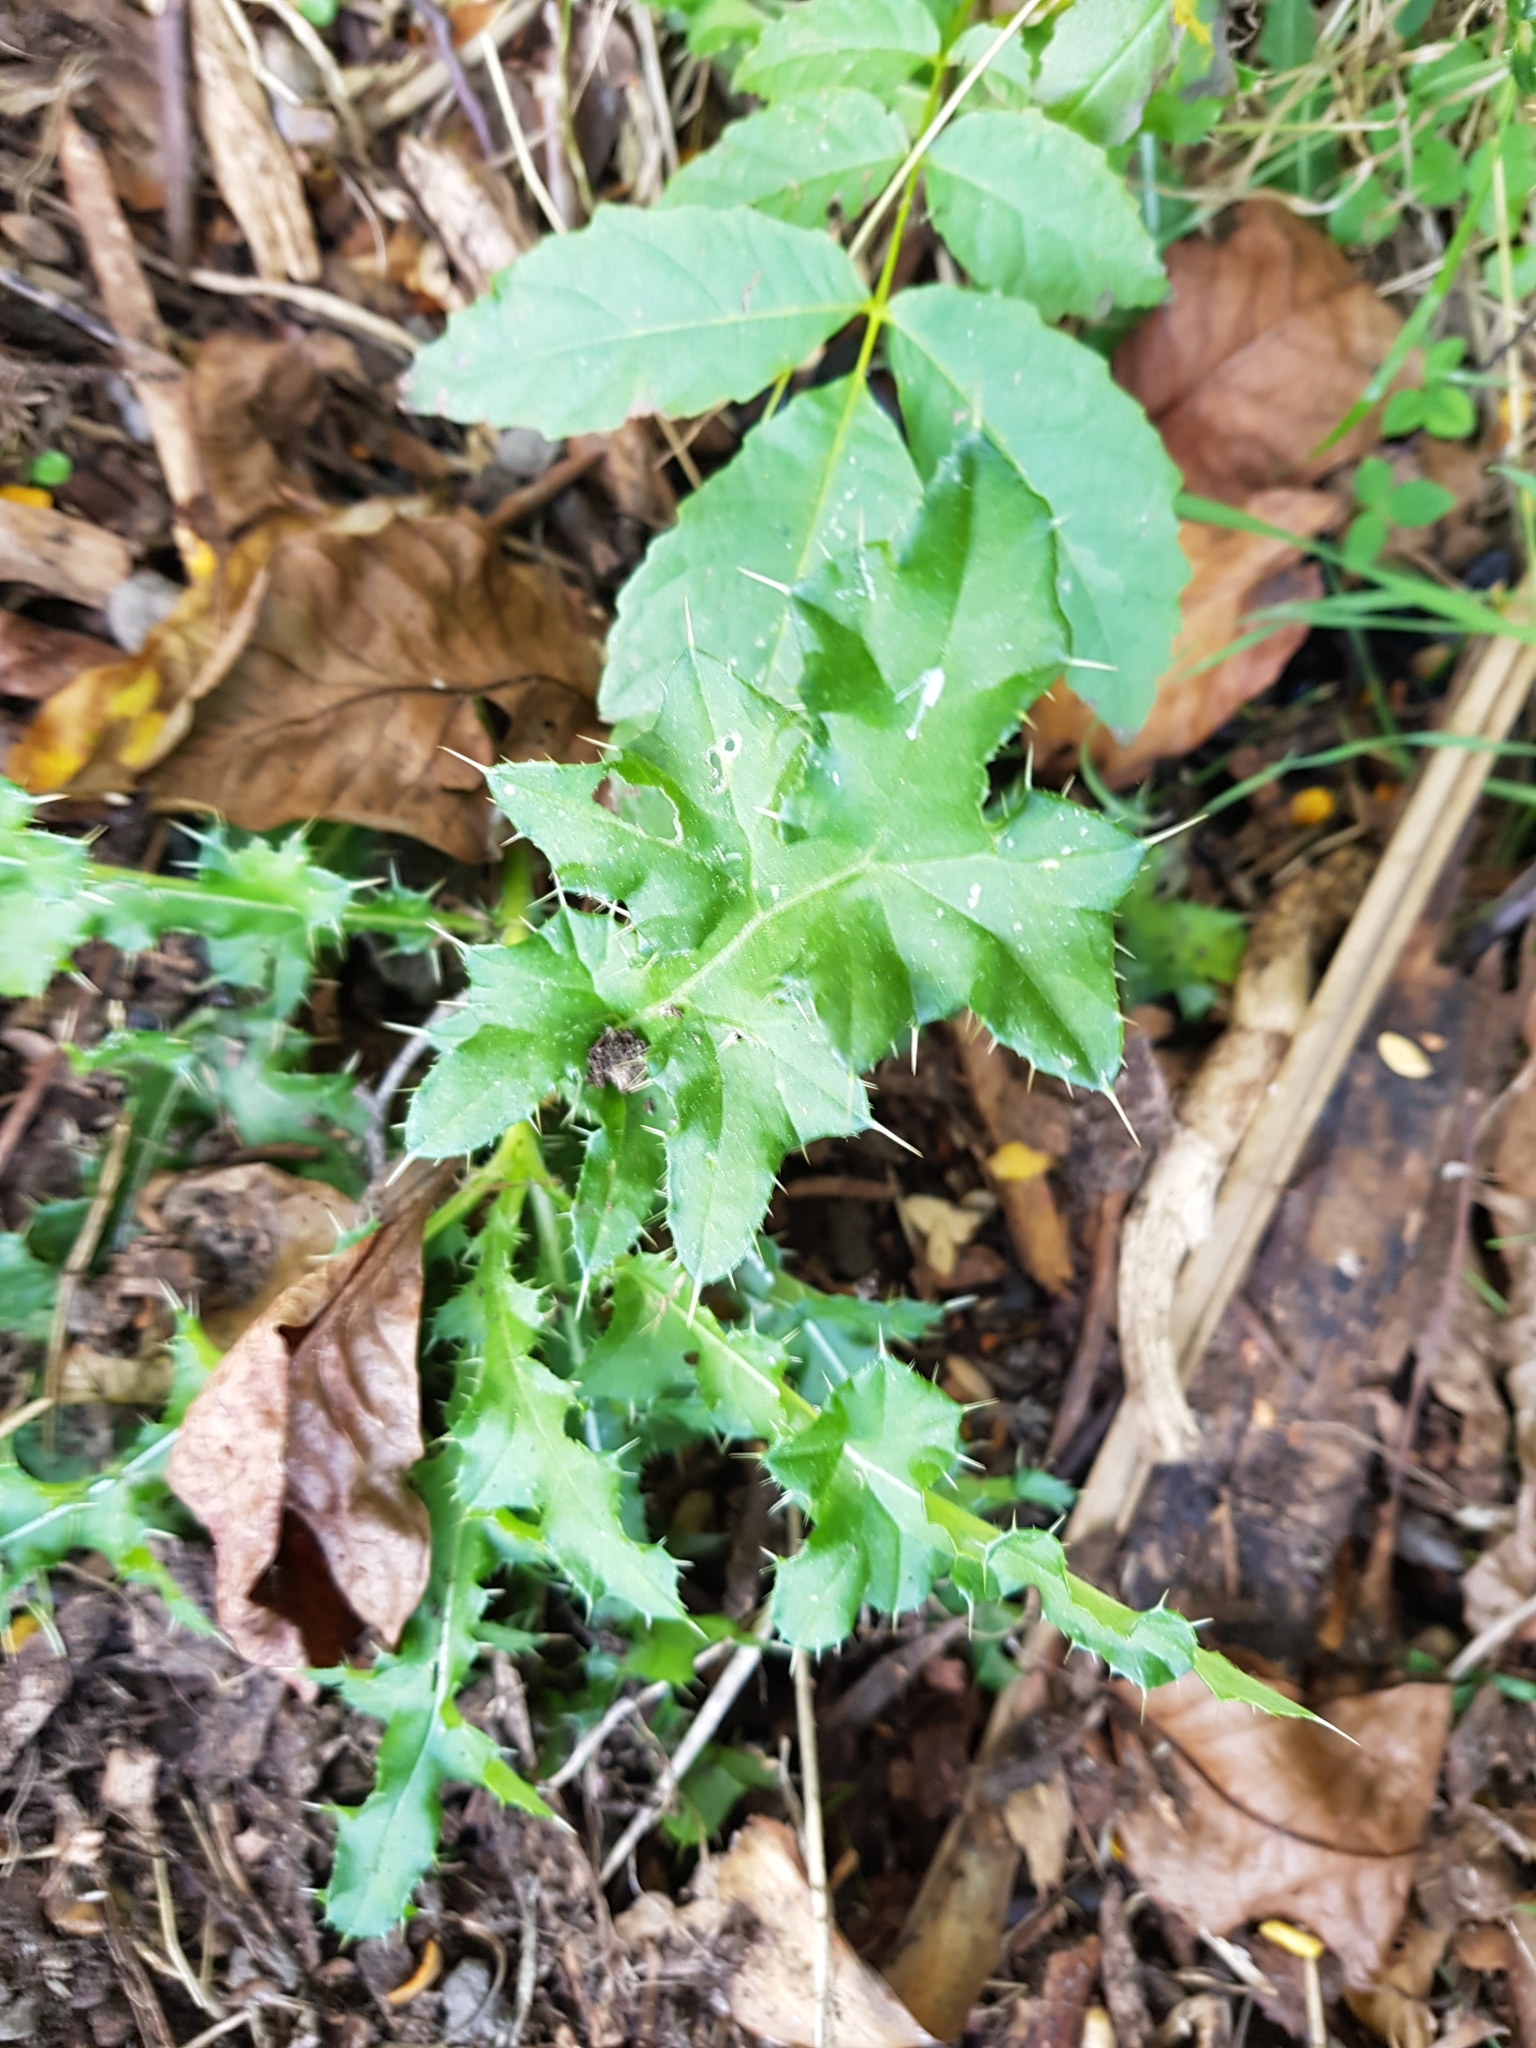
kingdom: Plantae
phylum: Tracheophyta
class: Magnoliopsida
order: Asterales
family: Asteraceae
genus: Cirsium
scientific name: Cirsium arvense
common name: Creeping thistle
